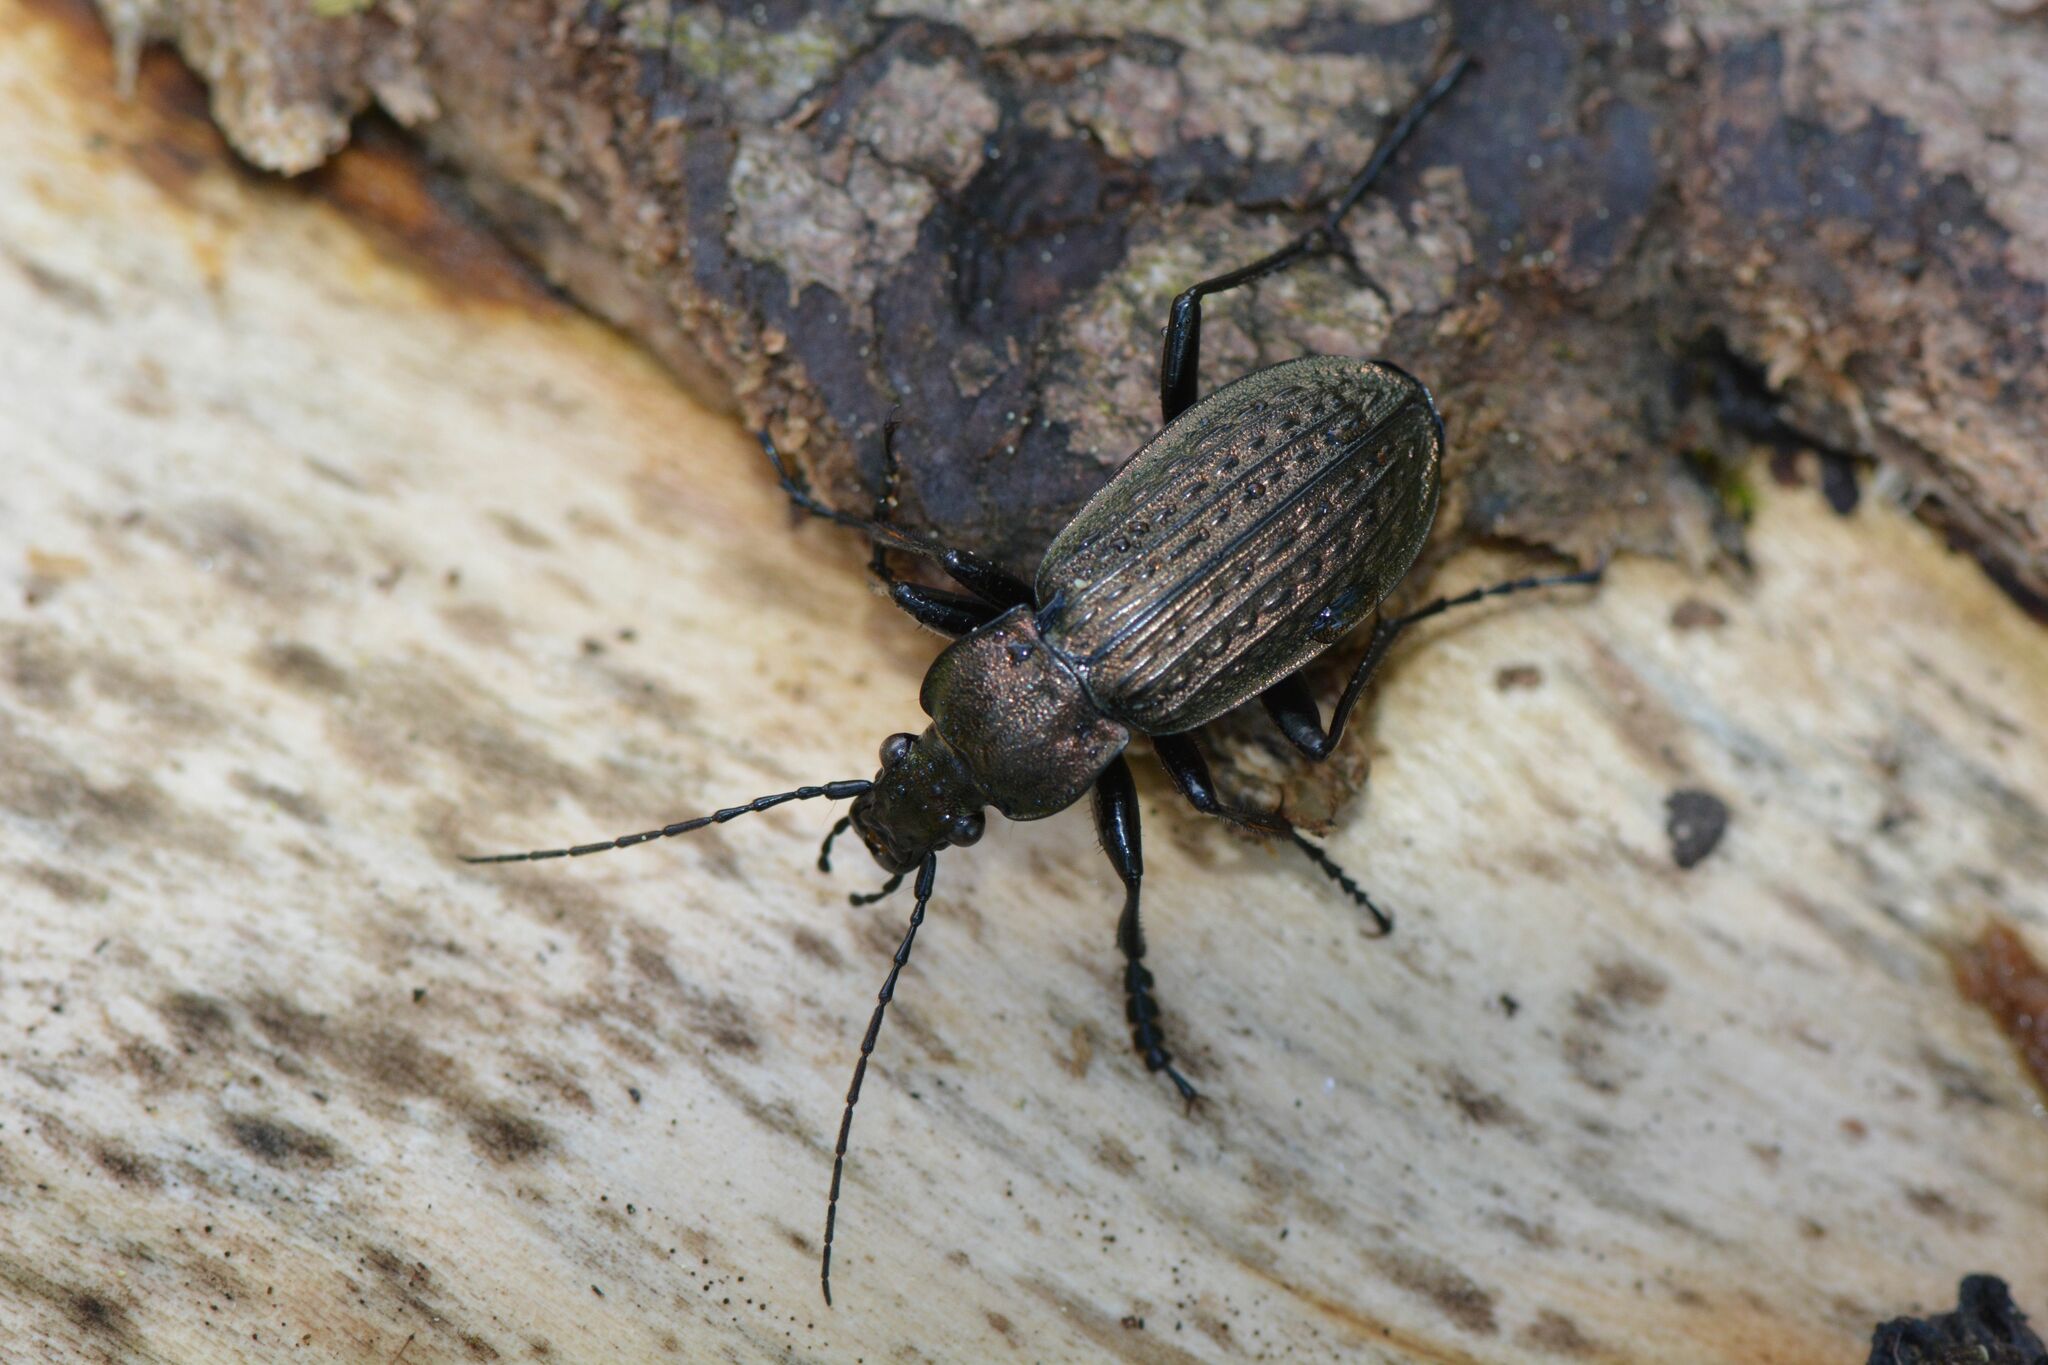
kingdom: Animalia
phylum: Arthropoda
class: Insecta
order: Coleoptera
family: Carabidae
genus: Carabus
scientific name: Carabus granulatus
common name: Granulate ground beetle
